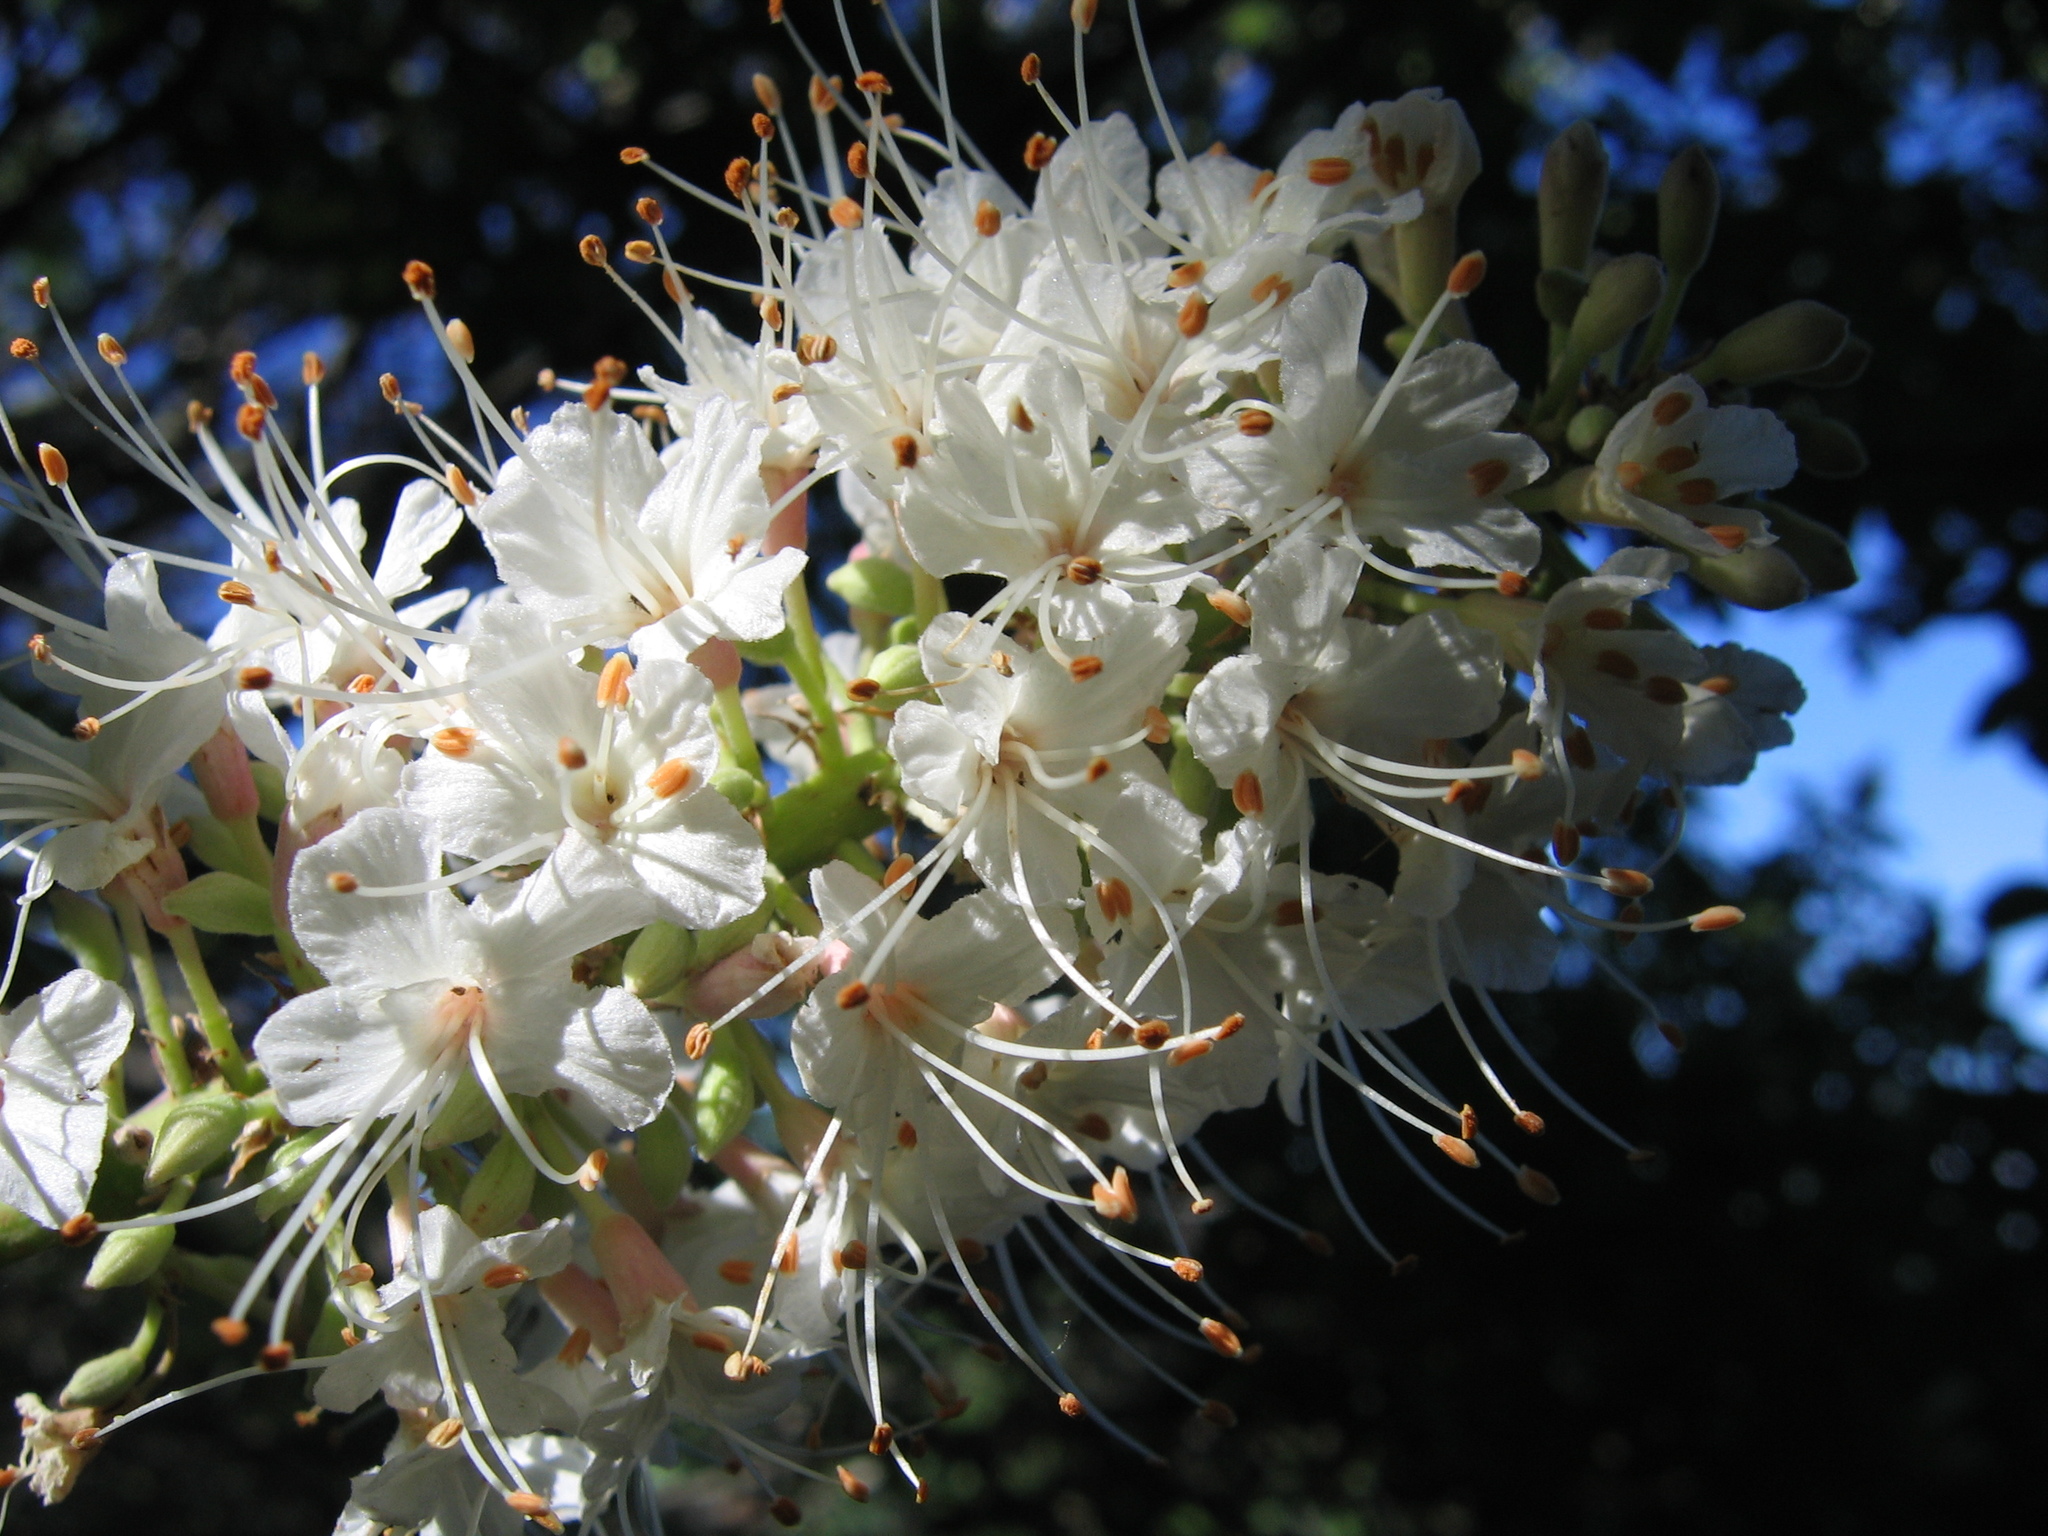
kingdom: Plantae
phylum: Tracheophyta
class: Magnoliopsida
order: Sapindales
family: Sapindaceae
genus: Aesculus
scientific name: Aesculus californica
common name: California buckeye
